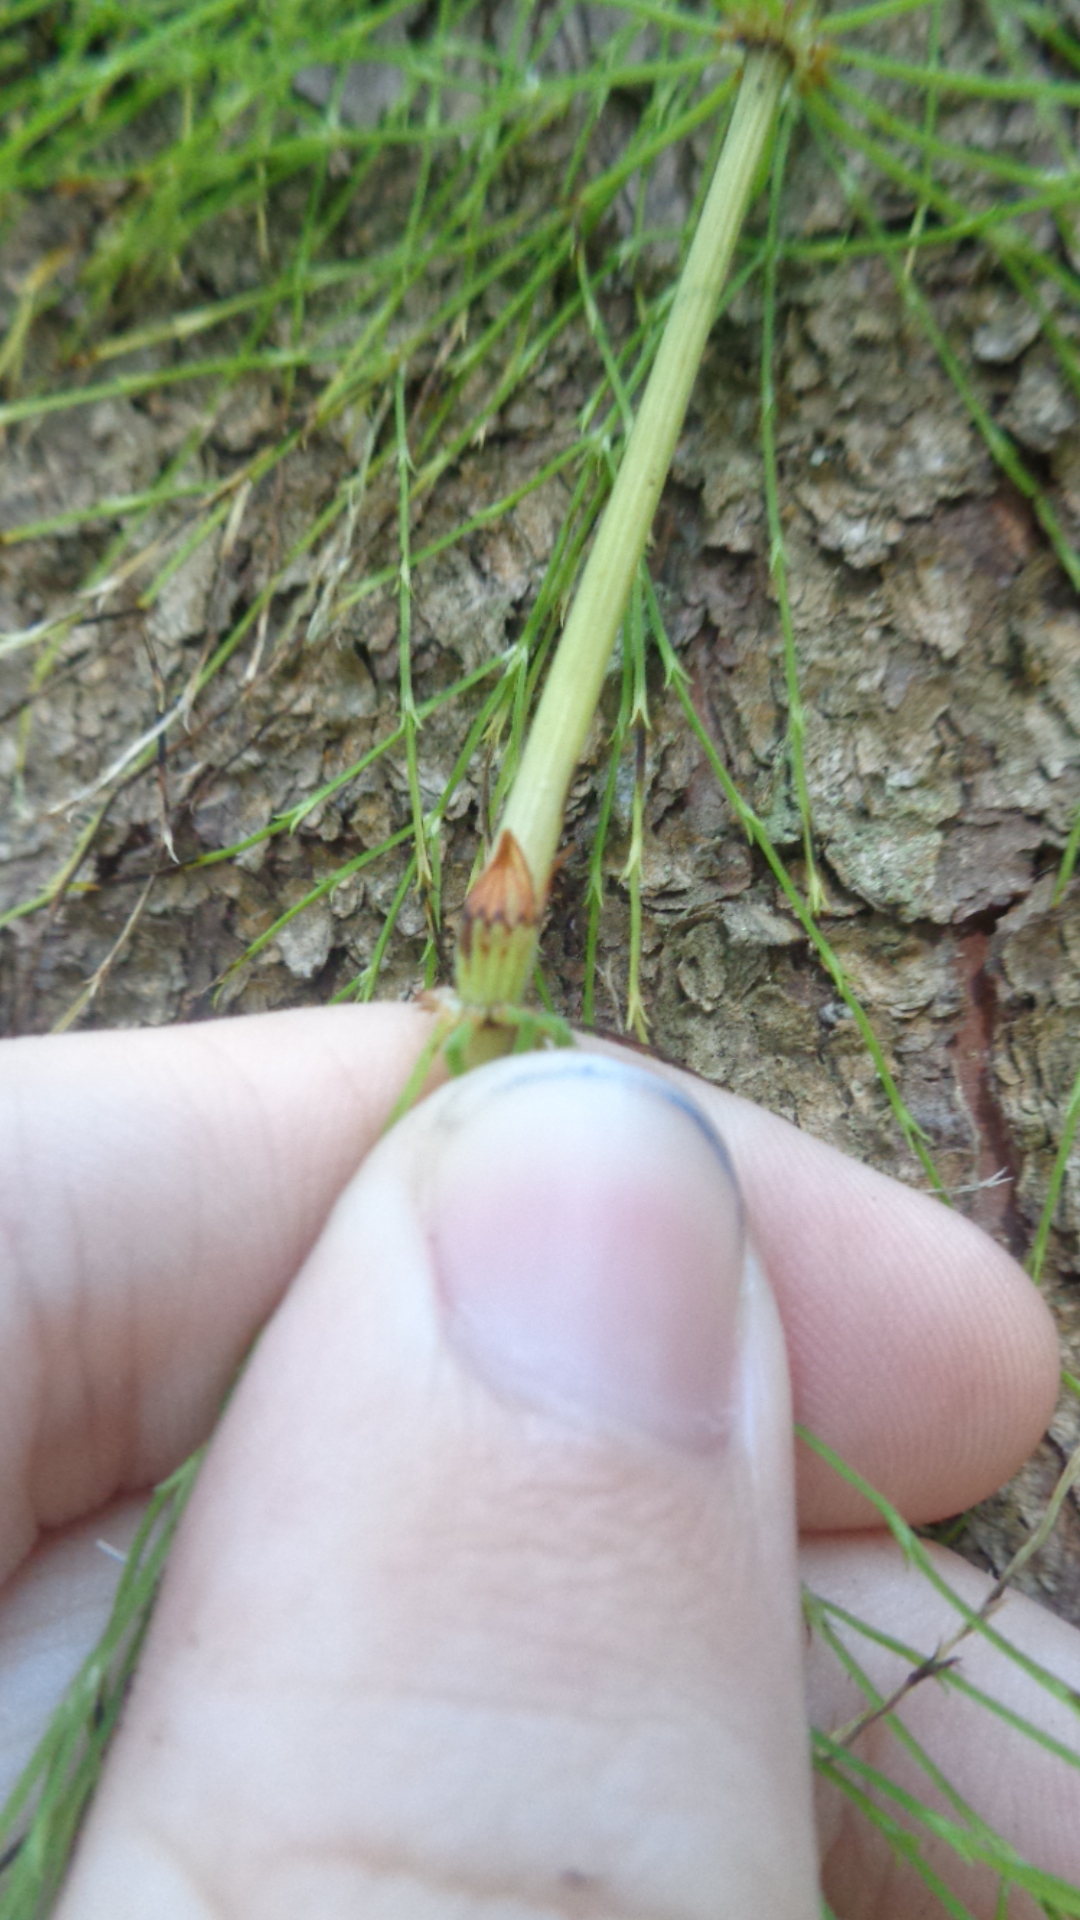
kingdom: Plantae
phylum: Tracheophyta
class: Polypodiopsida
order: Equisetales
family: Equisetaceae
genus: Equisetum
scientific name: Equisetum sylvaticum
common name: Wood horsetail
